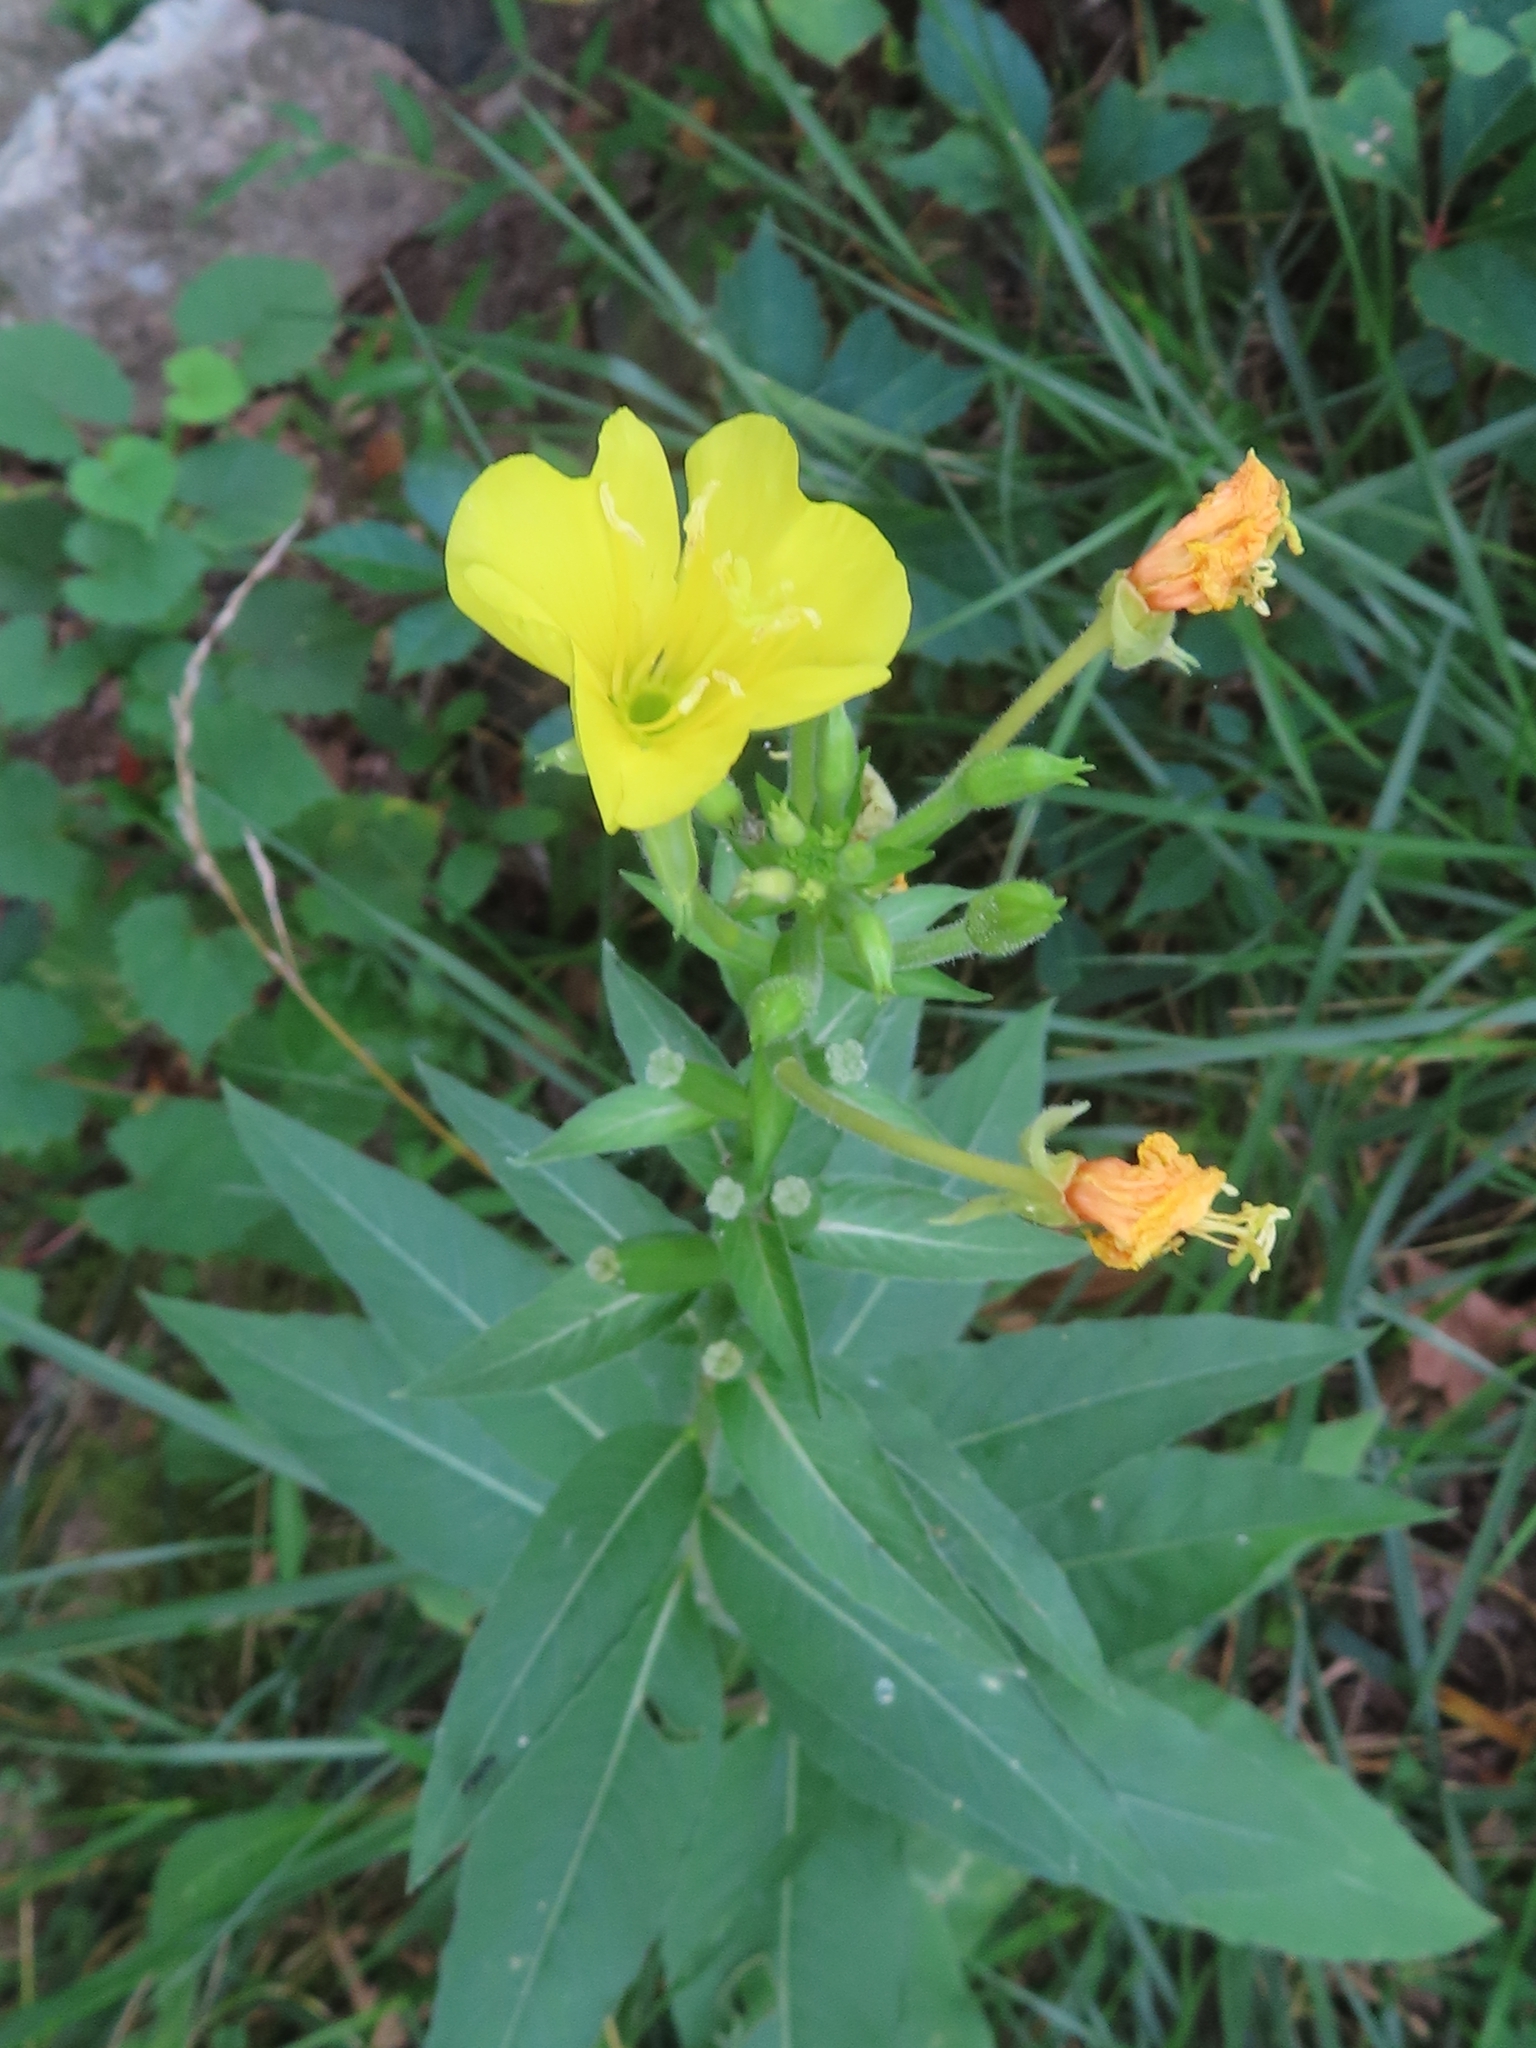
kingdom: Plantae
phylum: Tracheophyta
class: Magnoliopsida
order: Myrtales
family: Onagraceae
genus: Oenothera
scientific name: Oenothera biennis
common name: Common evening-primrose
